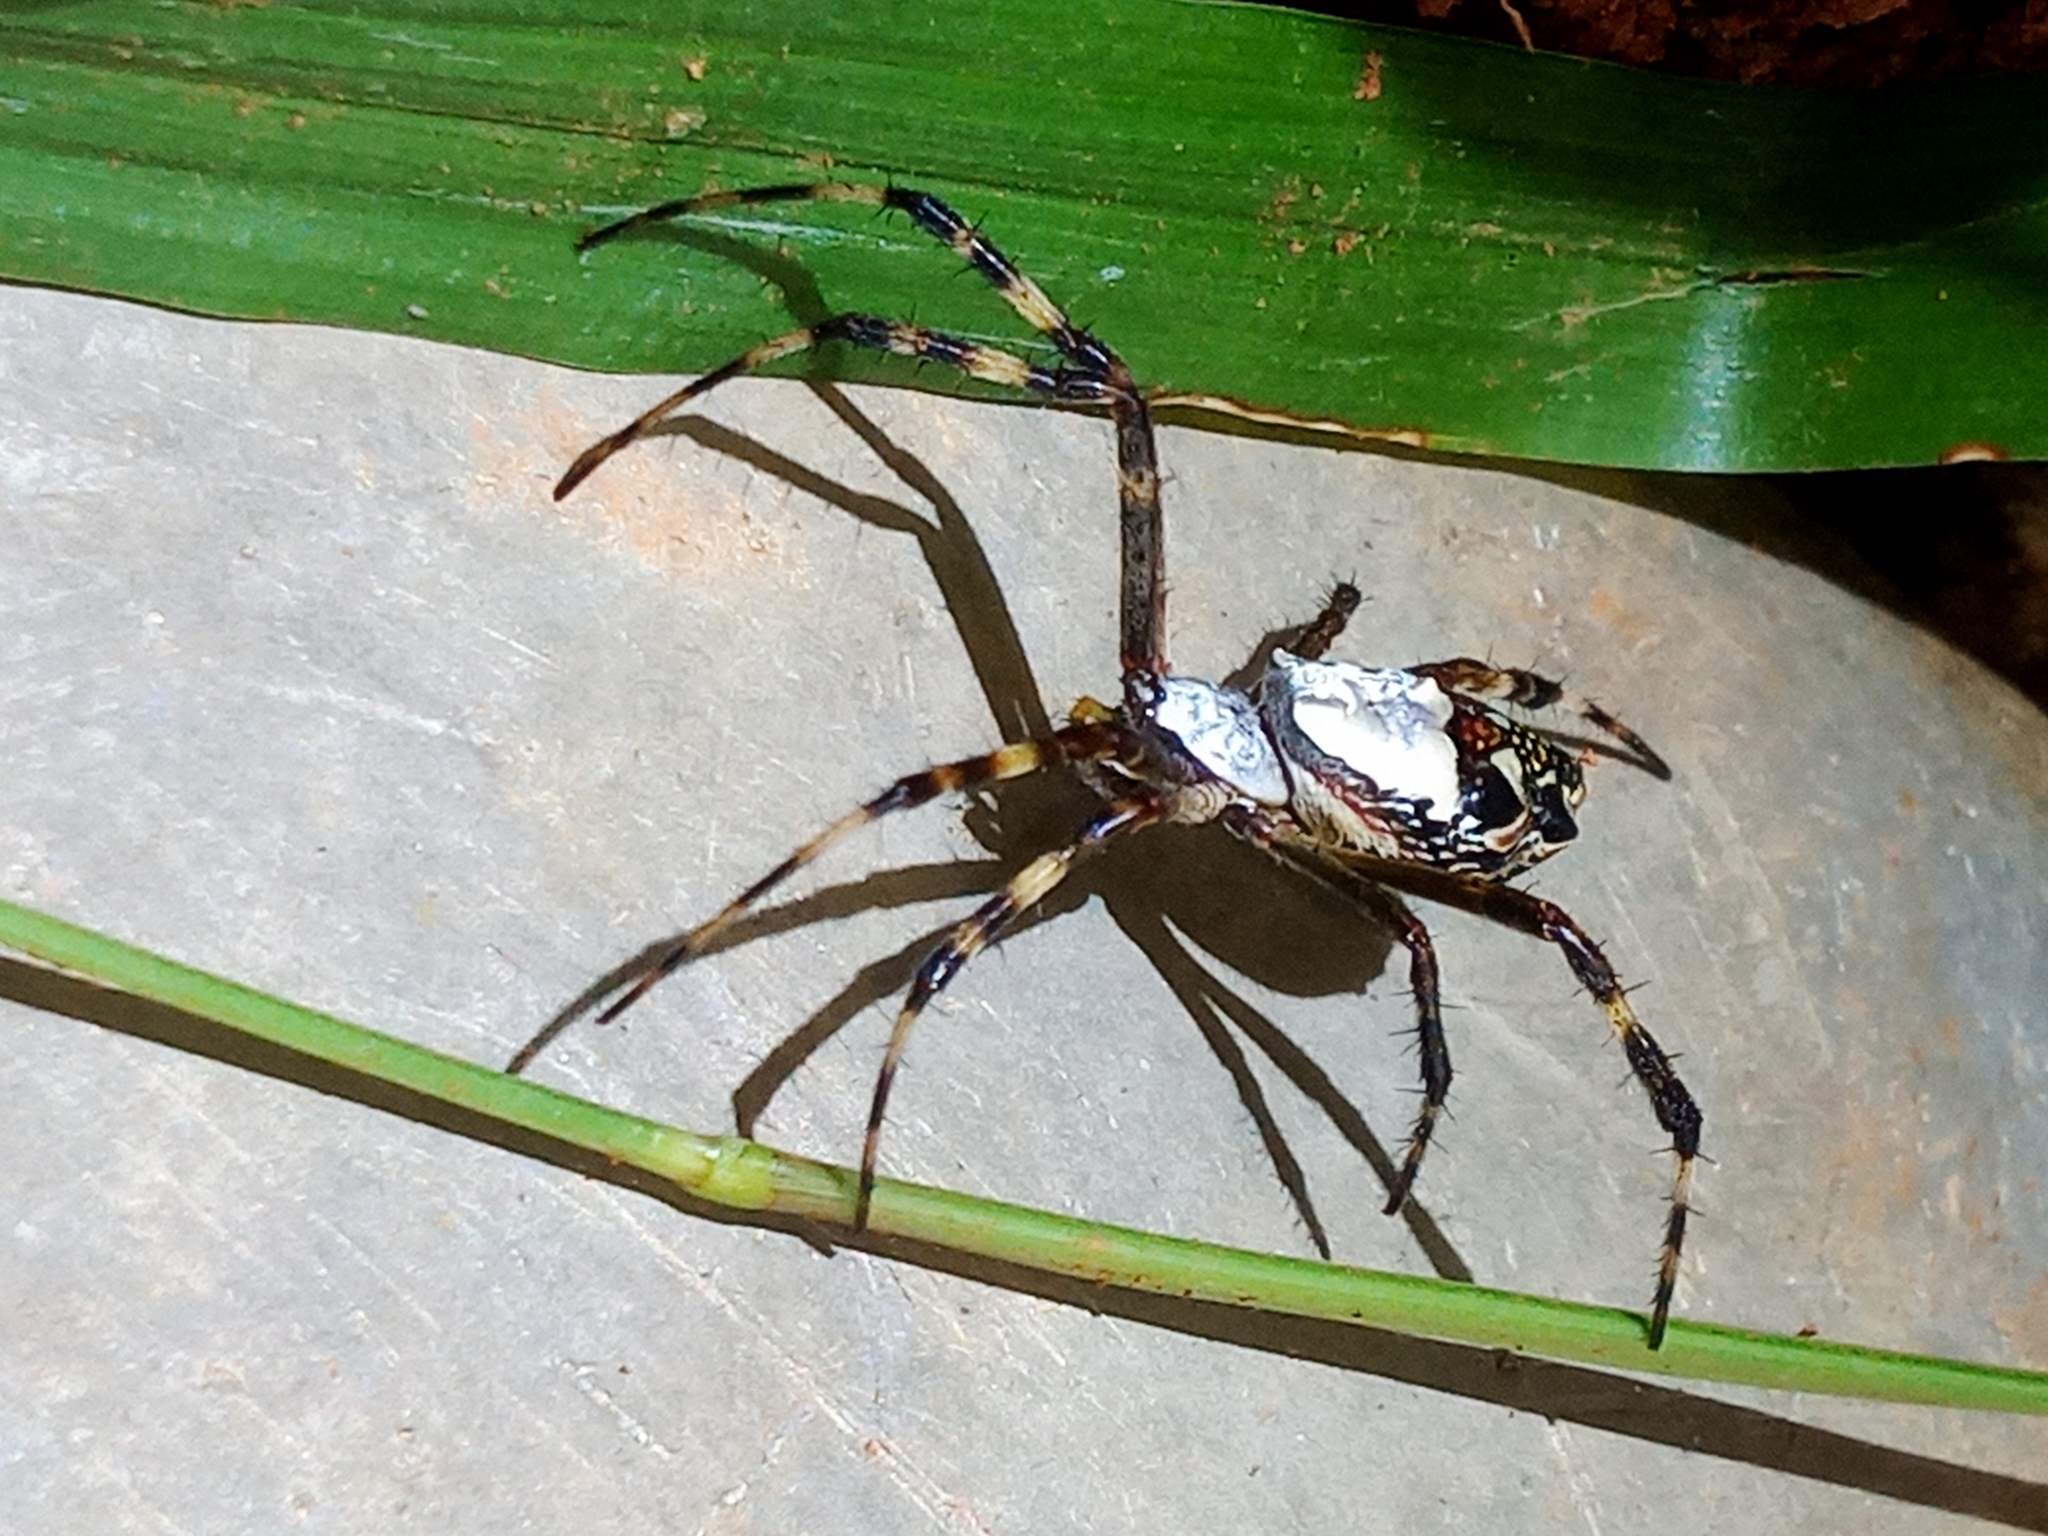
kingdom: Animalia
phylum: Arthropoda
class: Arachnida
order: Araneae
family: Araneidae
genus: Argiope
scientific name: Argiope argentata
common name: Orb weavers
